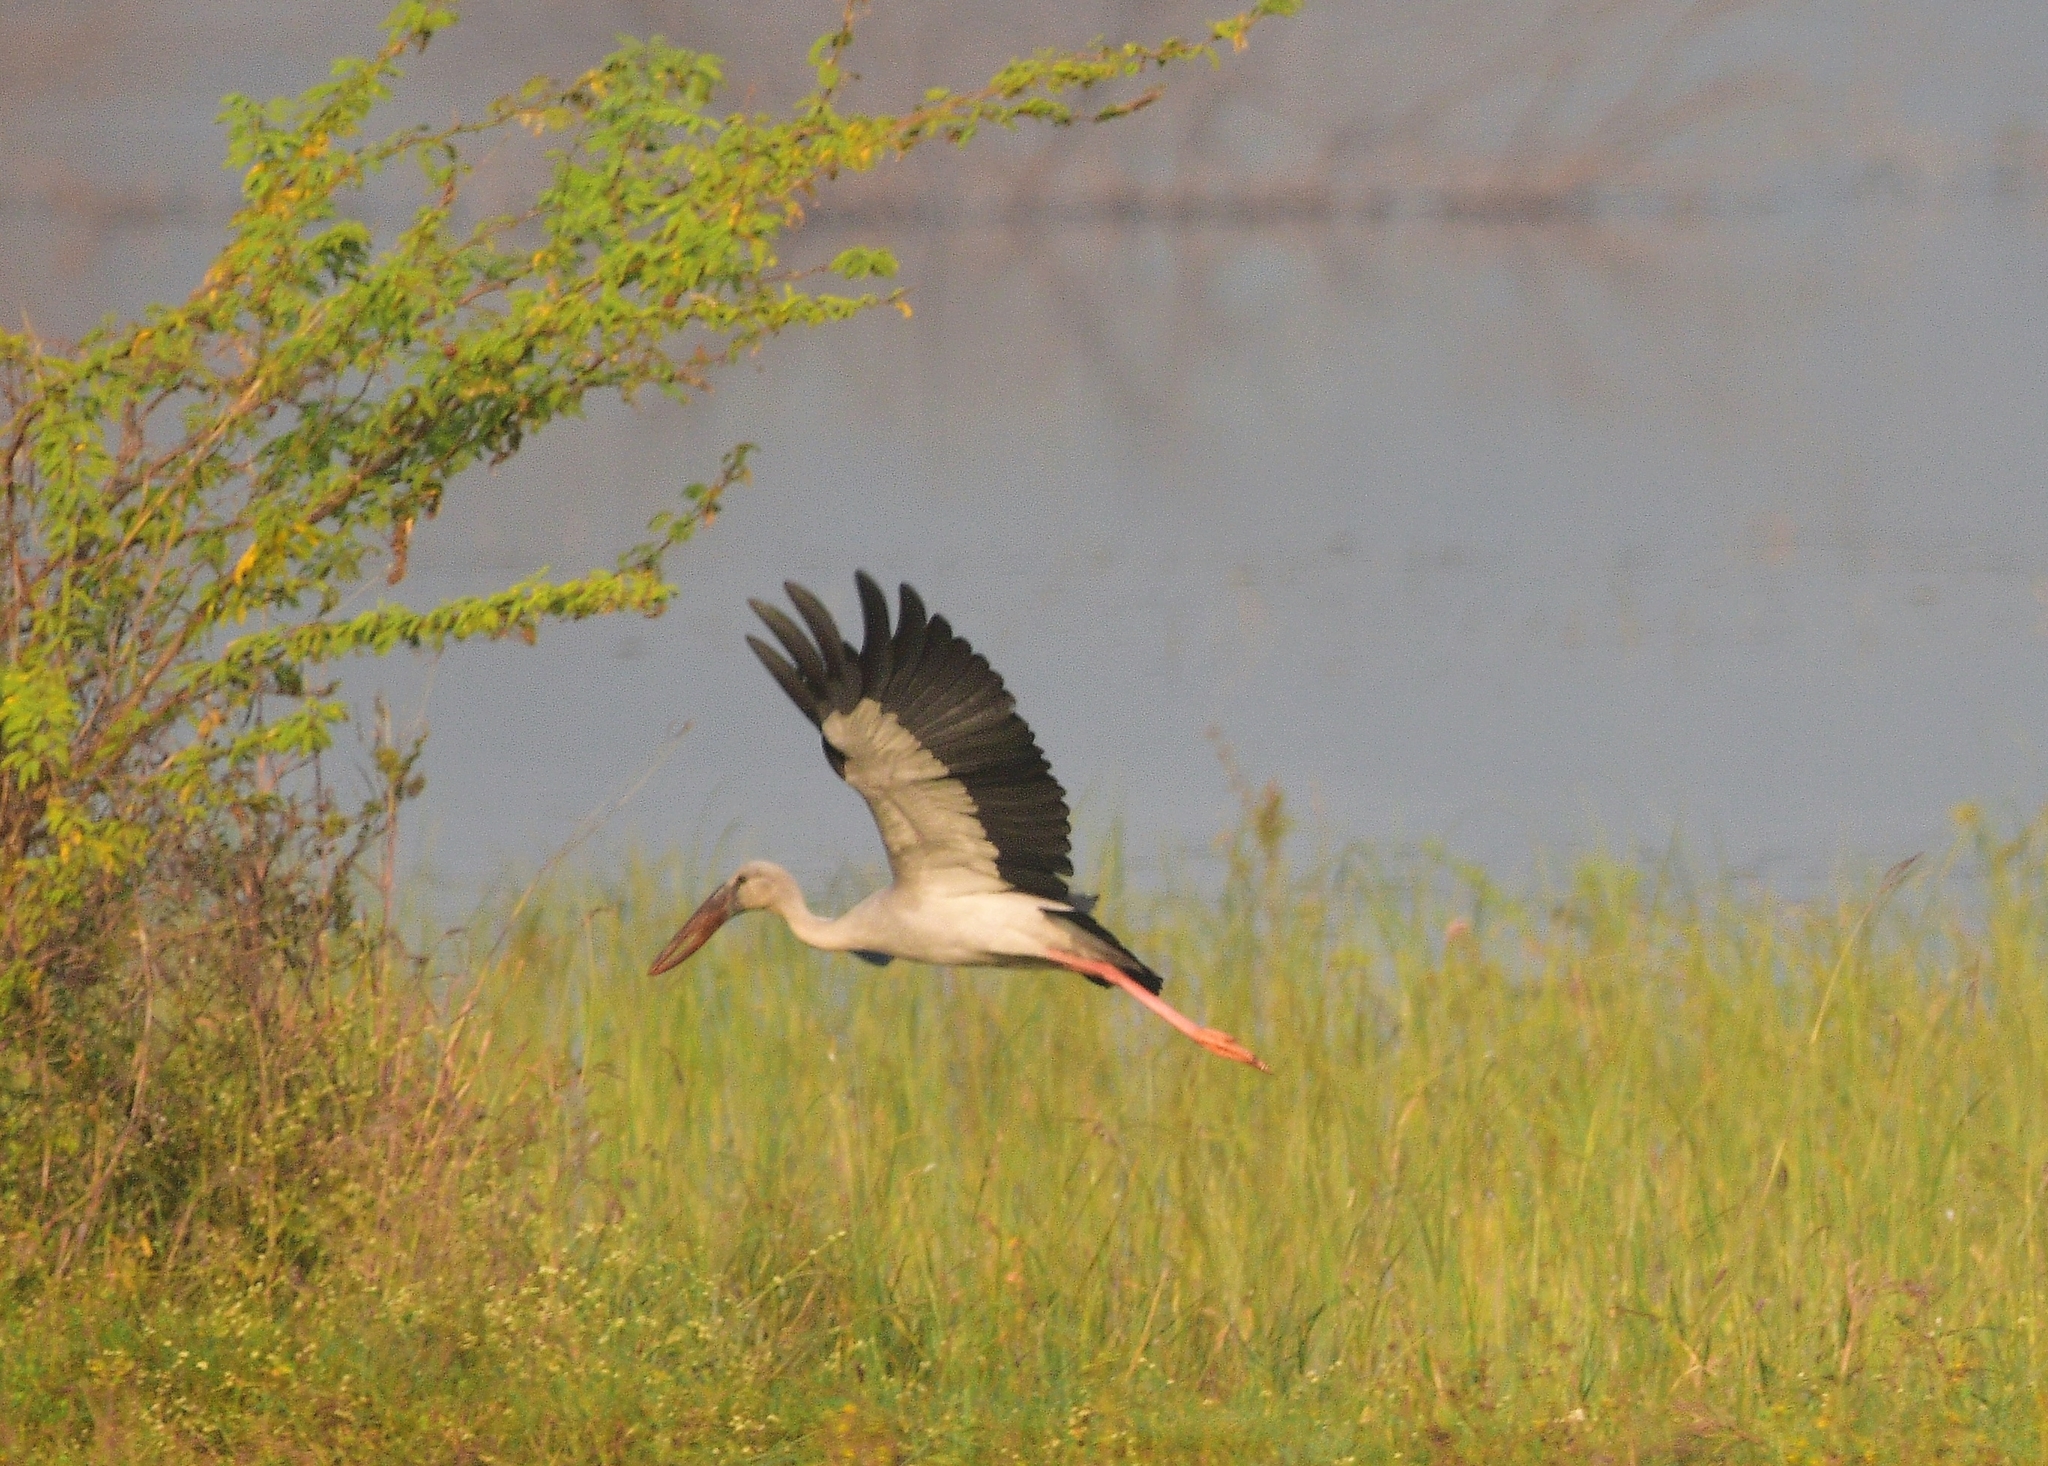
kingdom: Animalia
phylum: Chordata
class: Aves
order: Ciconiiformes
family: Ciconiidae
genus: Anastomus
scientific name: Anastomus oscitans
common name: Asian openbill
